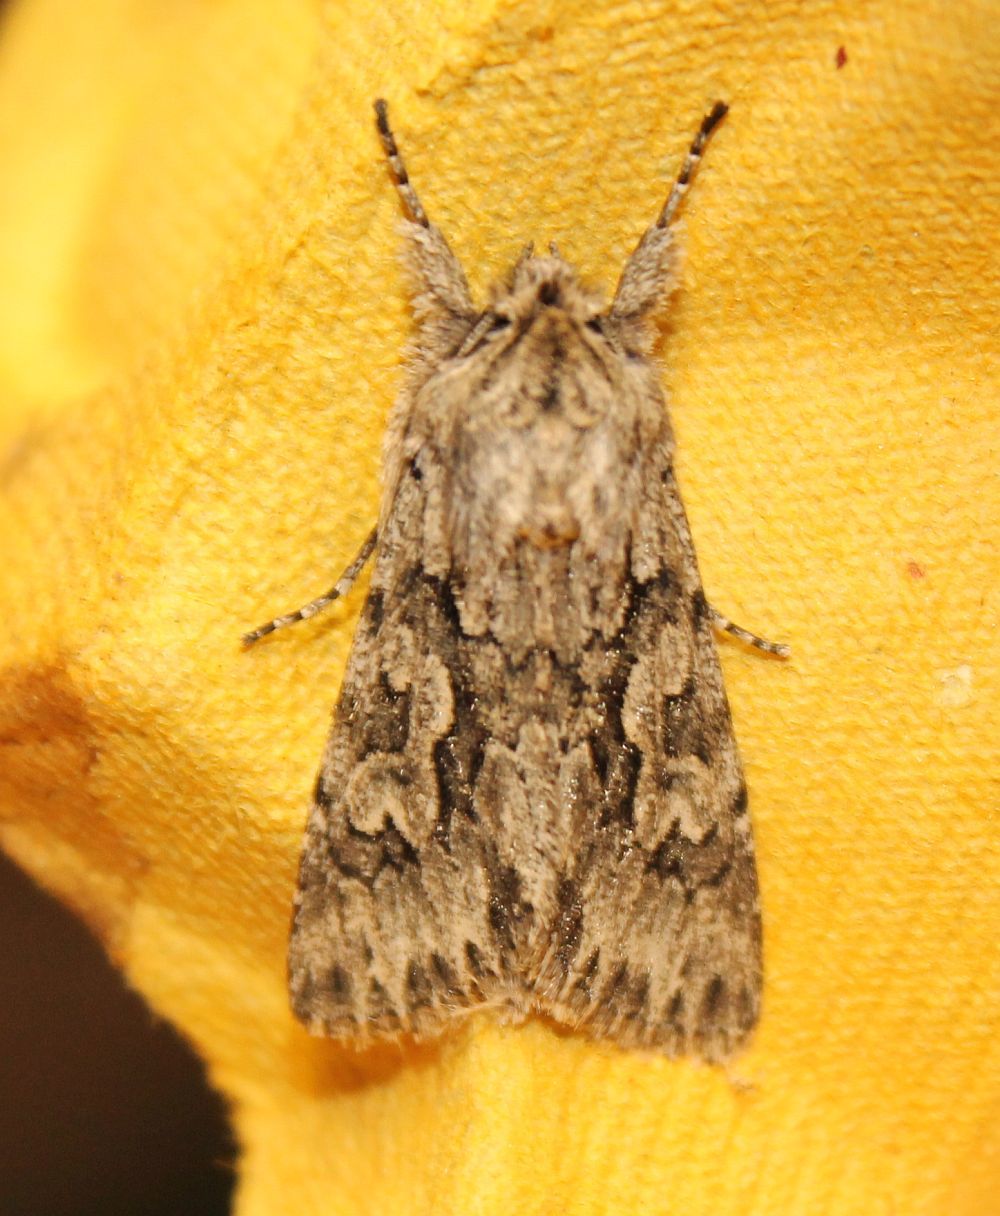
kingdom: Animalia
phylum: Arthropoda
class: Insecta
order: Lepidoptera
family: Noctuidae
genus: Xylocampa
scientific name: Xylocampa areola
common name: Early grey
